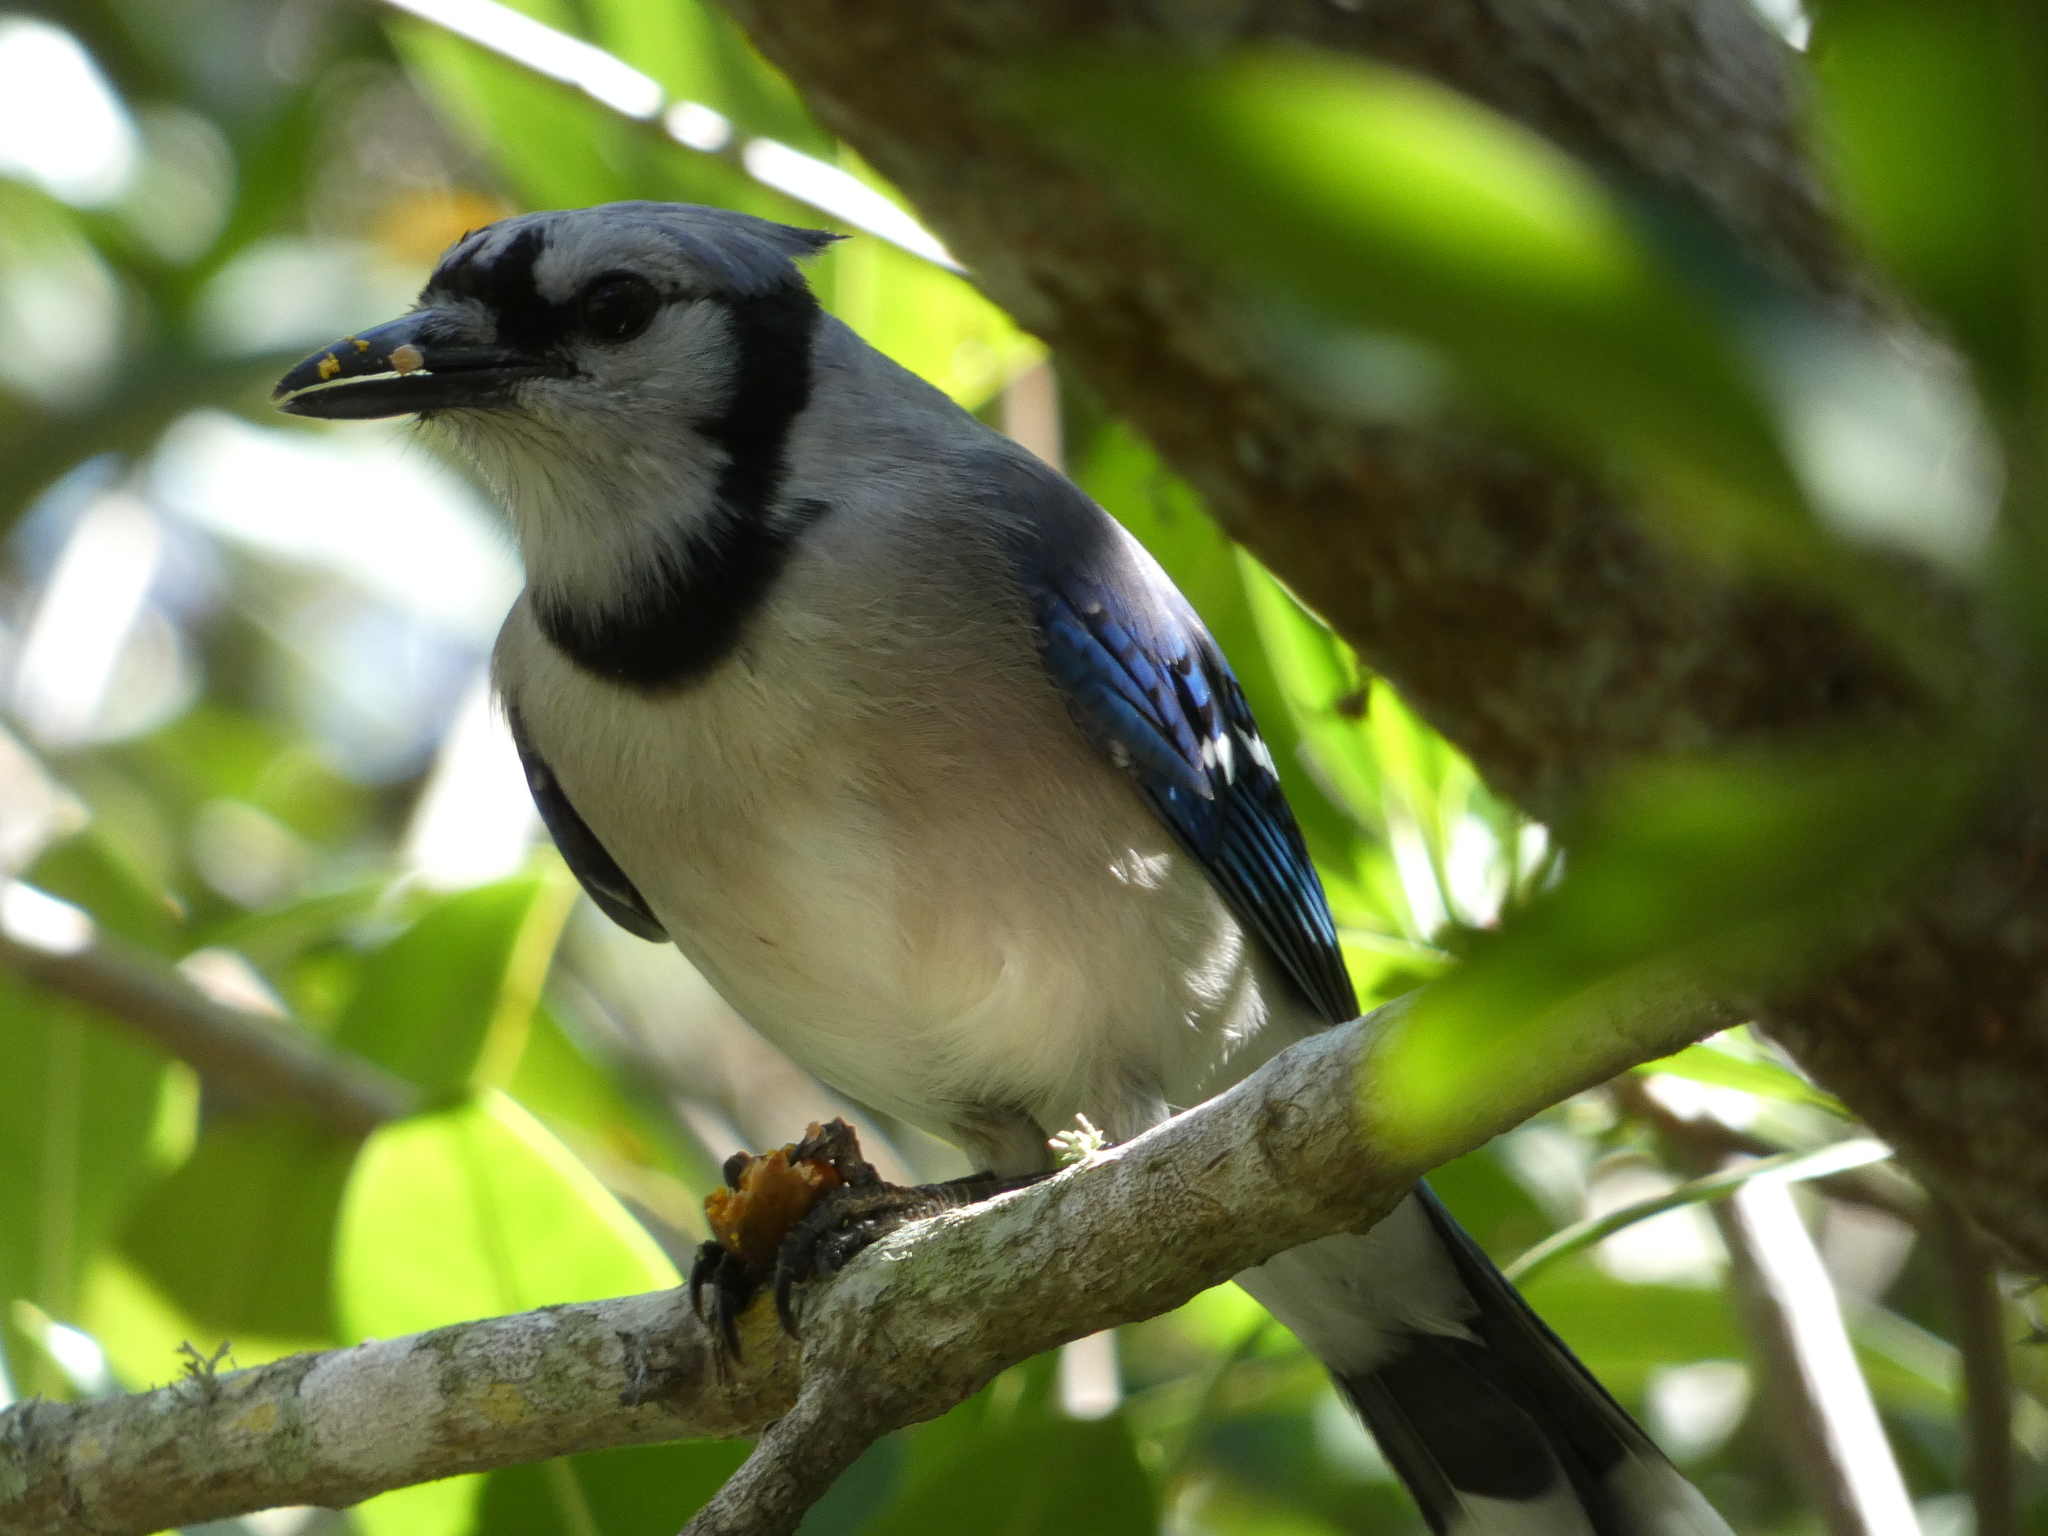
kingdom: Animalia
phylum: Chordata
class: Aves
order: Passeriformes
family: Corvidae
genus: Cyanocitta
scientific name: Cyanocitta cristata
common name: Blue jay
